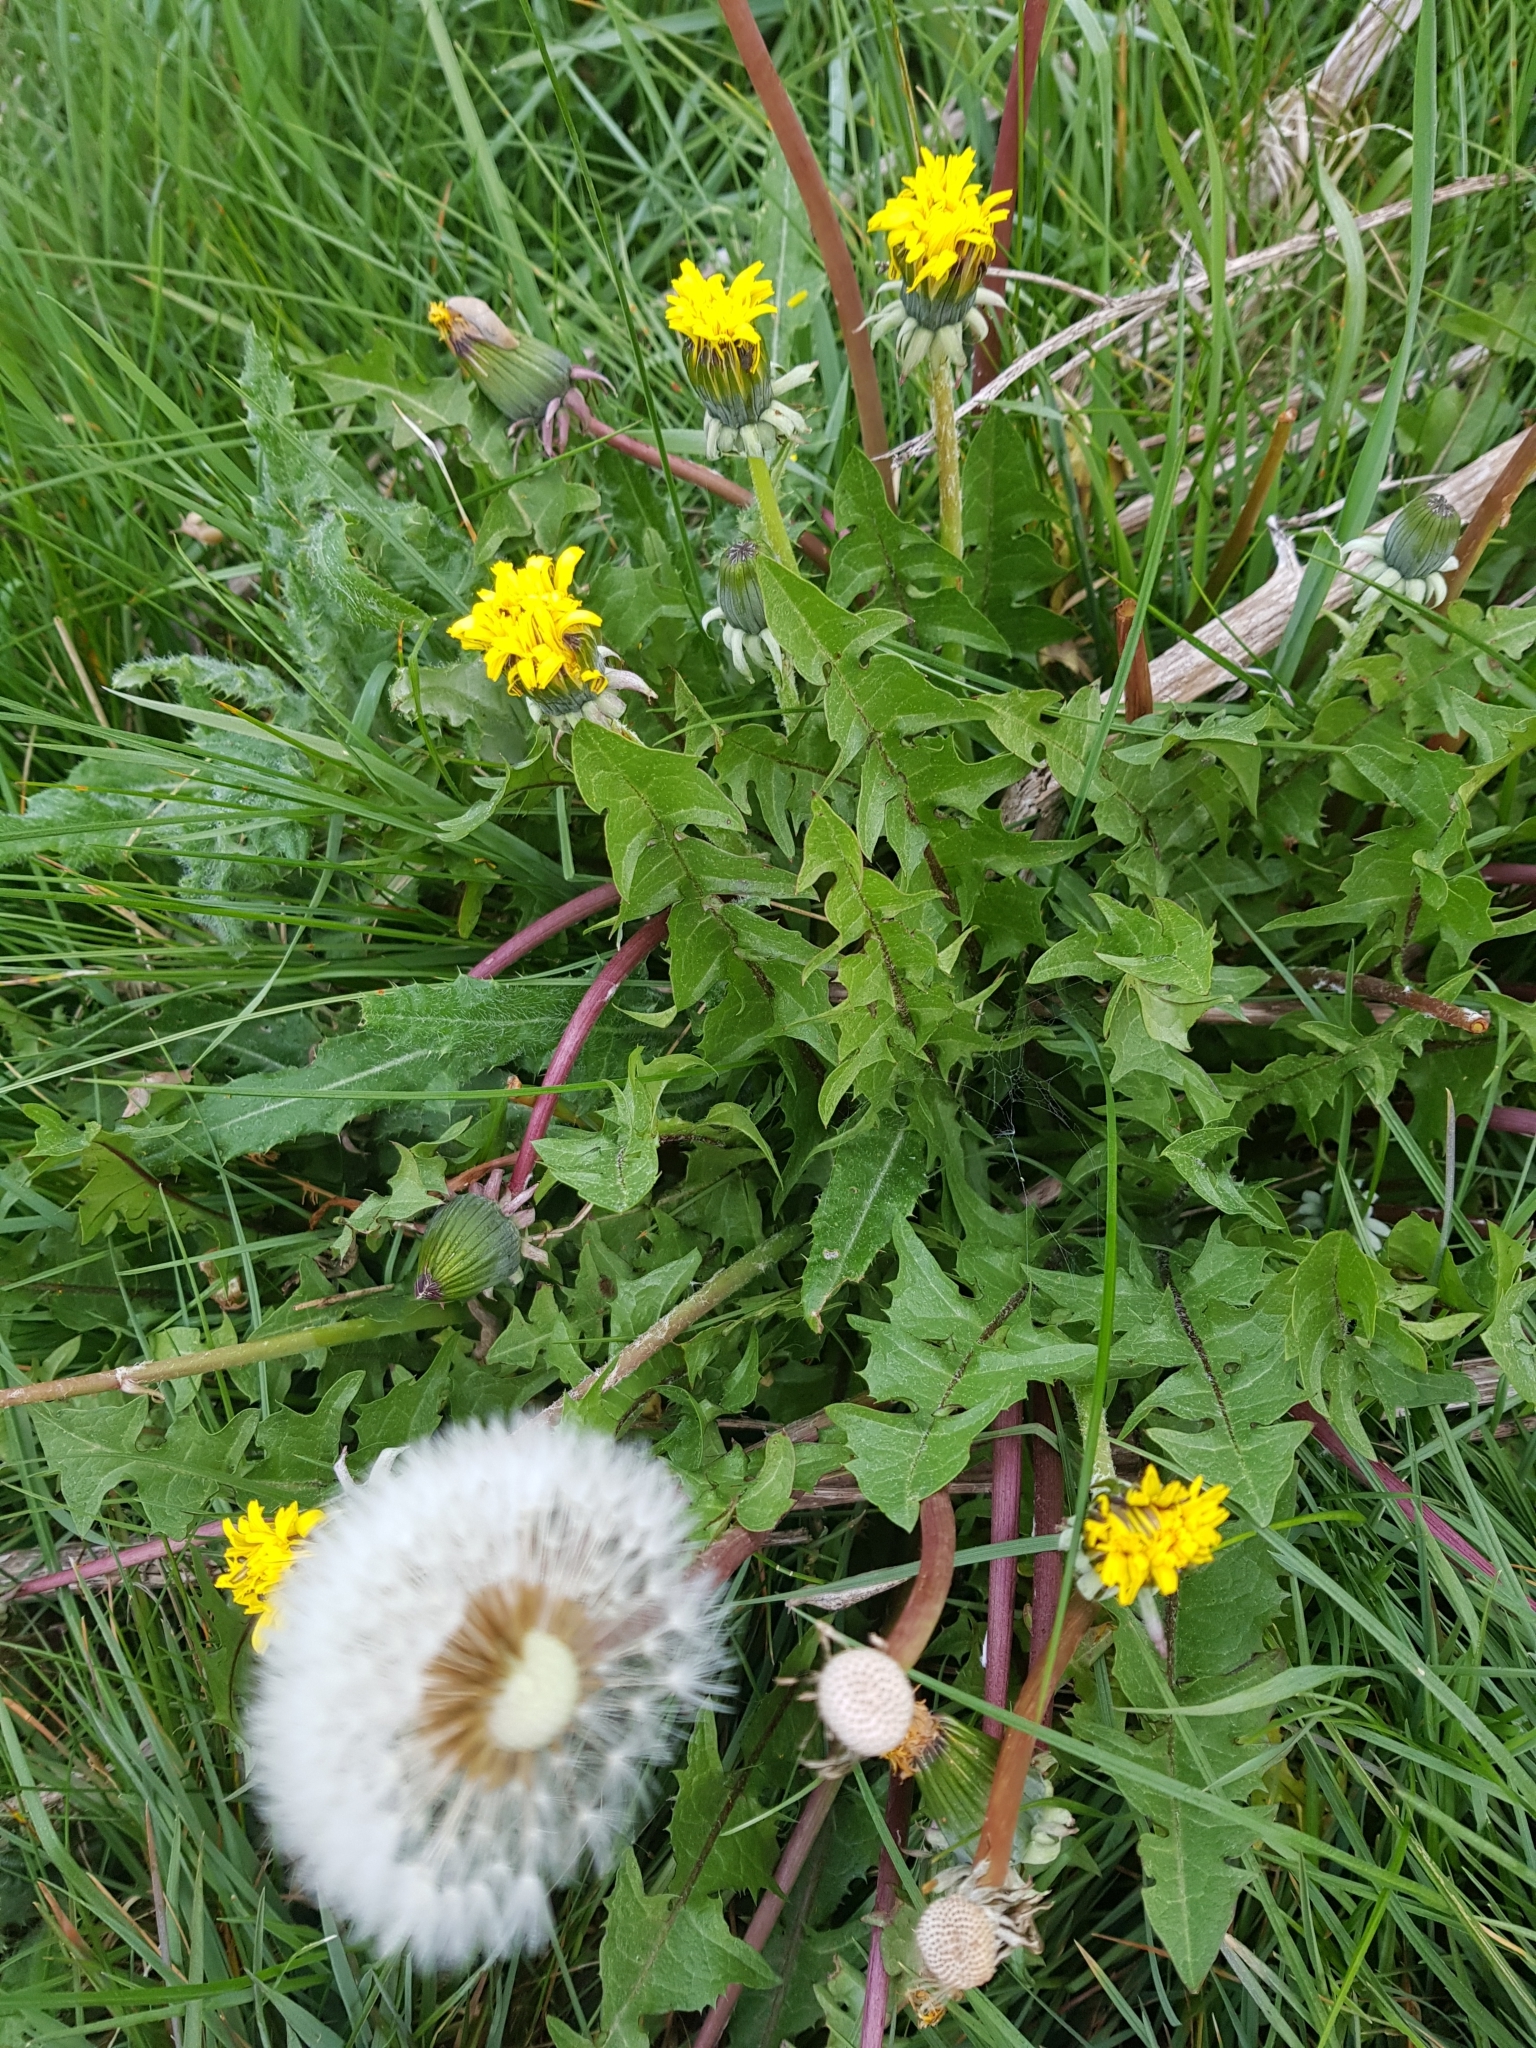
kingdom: Plantae
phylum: Tracheophyta
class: Magnoliopsida
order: Asterales
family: Asteraceae
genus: Taraxacum
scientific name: Taraxacum officinale
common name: Common dandelion
